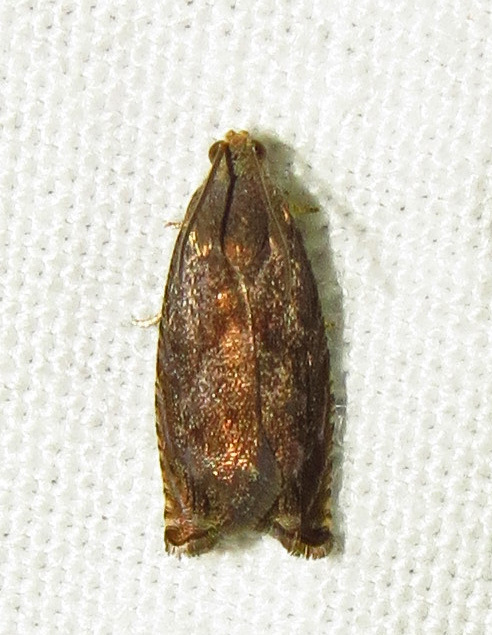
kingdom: Animalia
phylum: Arthropoda
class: Insecta
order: Lepidoptera
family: Tortricidae
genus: Cydia
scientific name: Cydia caryana
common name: Hickory shuckworm moth
